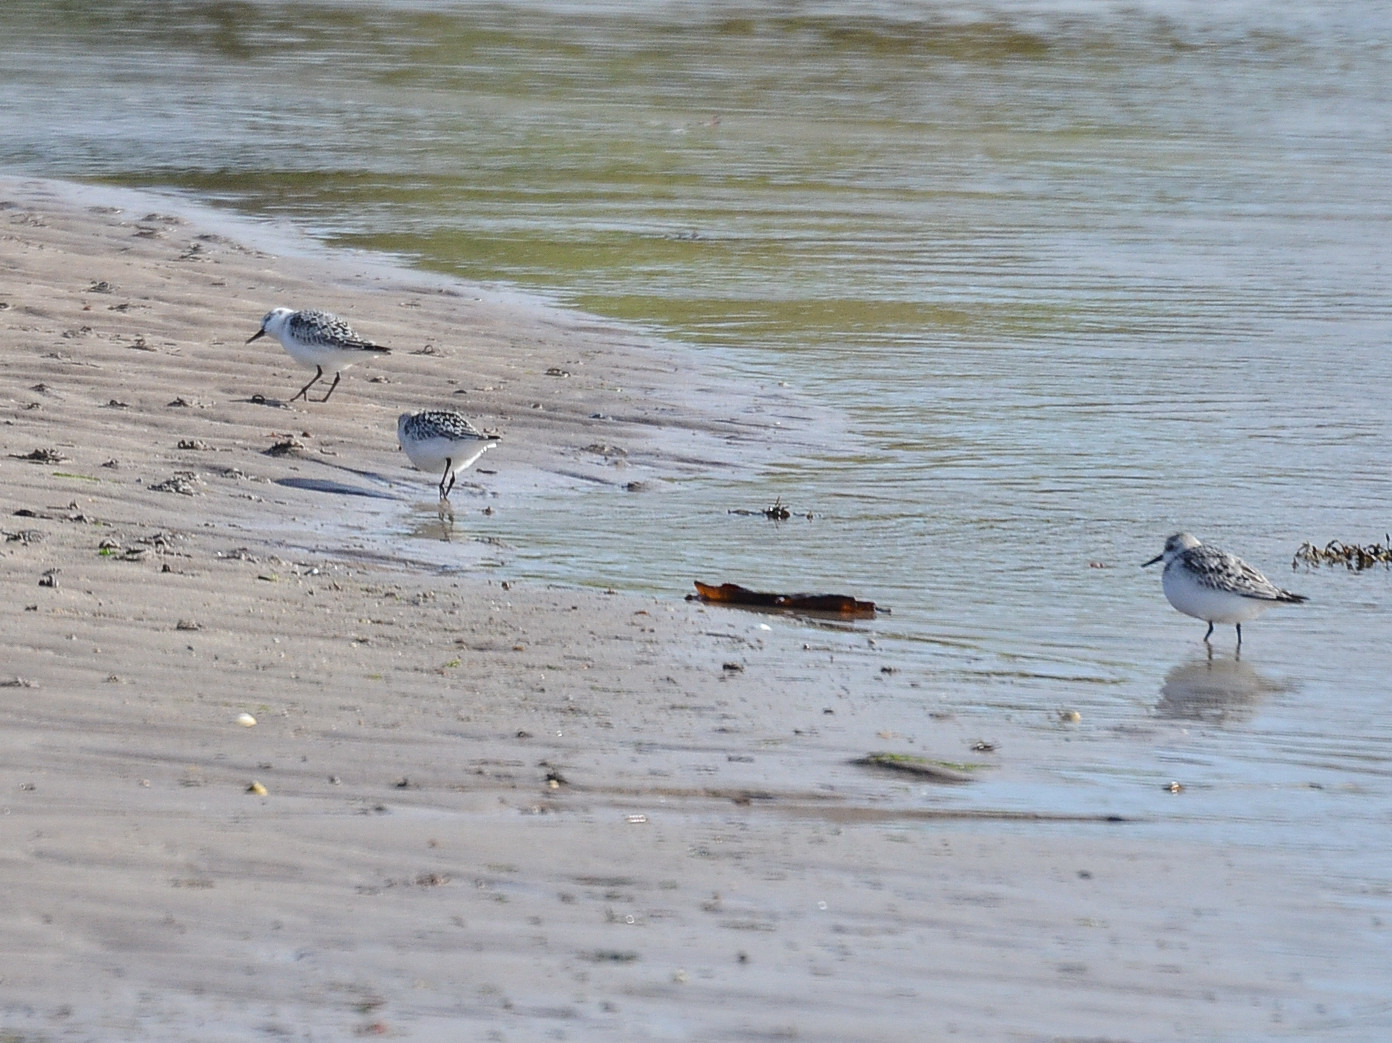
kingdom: Animalia
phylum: Chordata
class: Aves
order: Charadriiformes
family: Scolopacidae
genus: Calidris
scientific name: Calidris alba
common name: Sanderling
